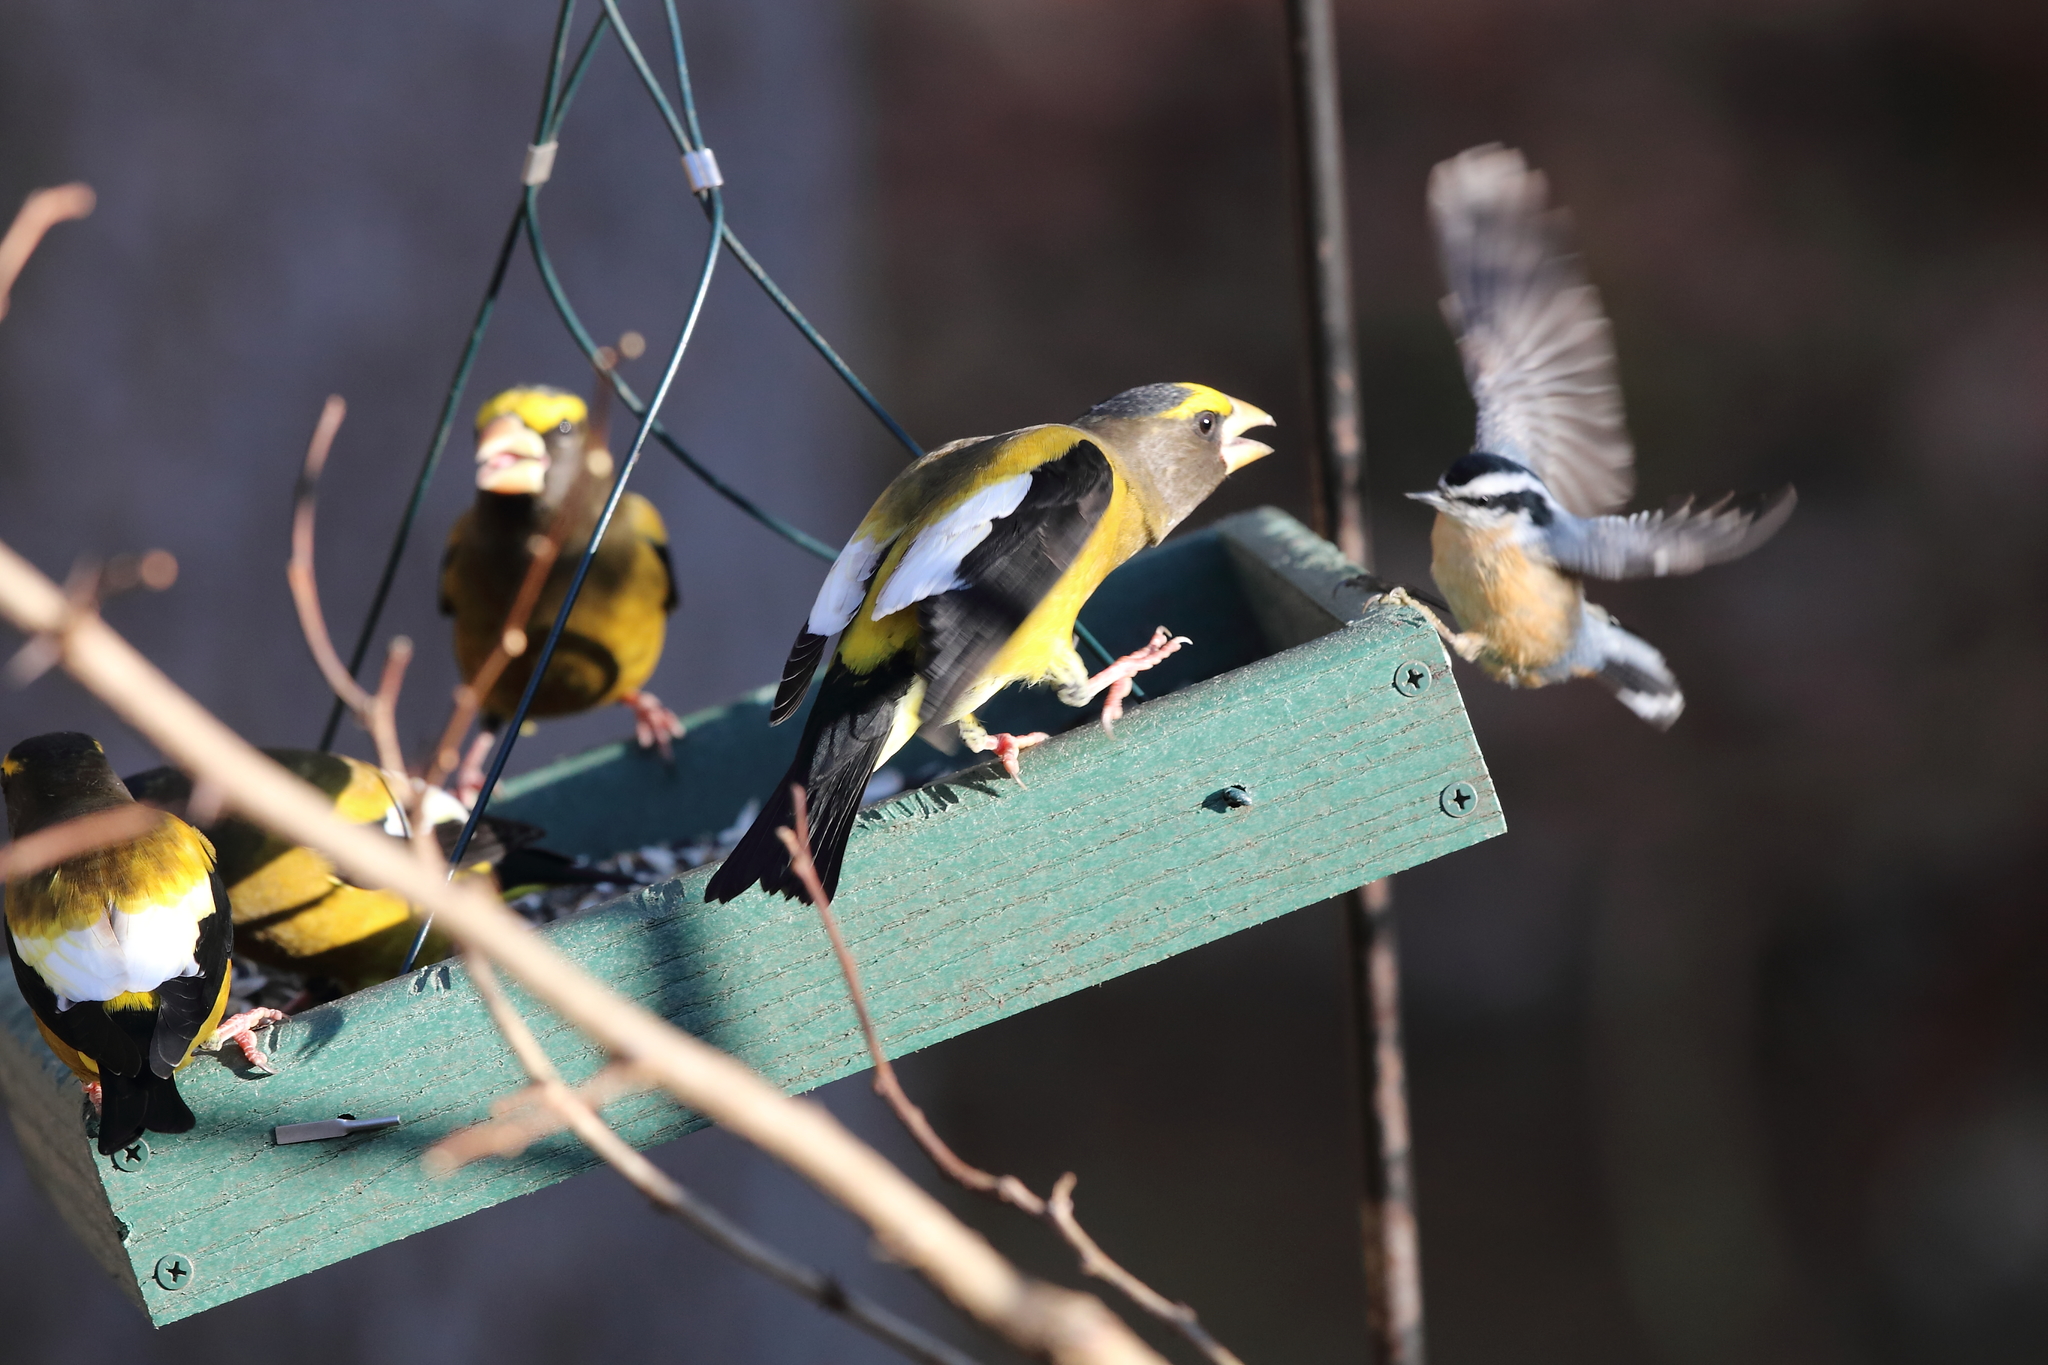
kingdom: Animalia
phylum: Chordata
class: Aves
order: Passeriformes
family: Sittidae
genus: Sitta
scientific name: Sitta canadensis
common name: Red-breasted nuthatch
